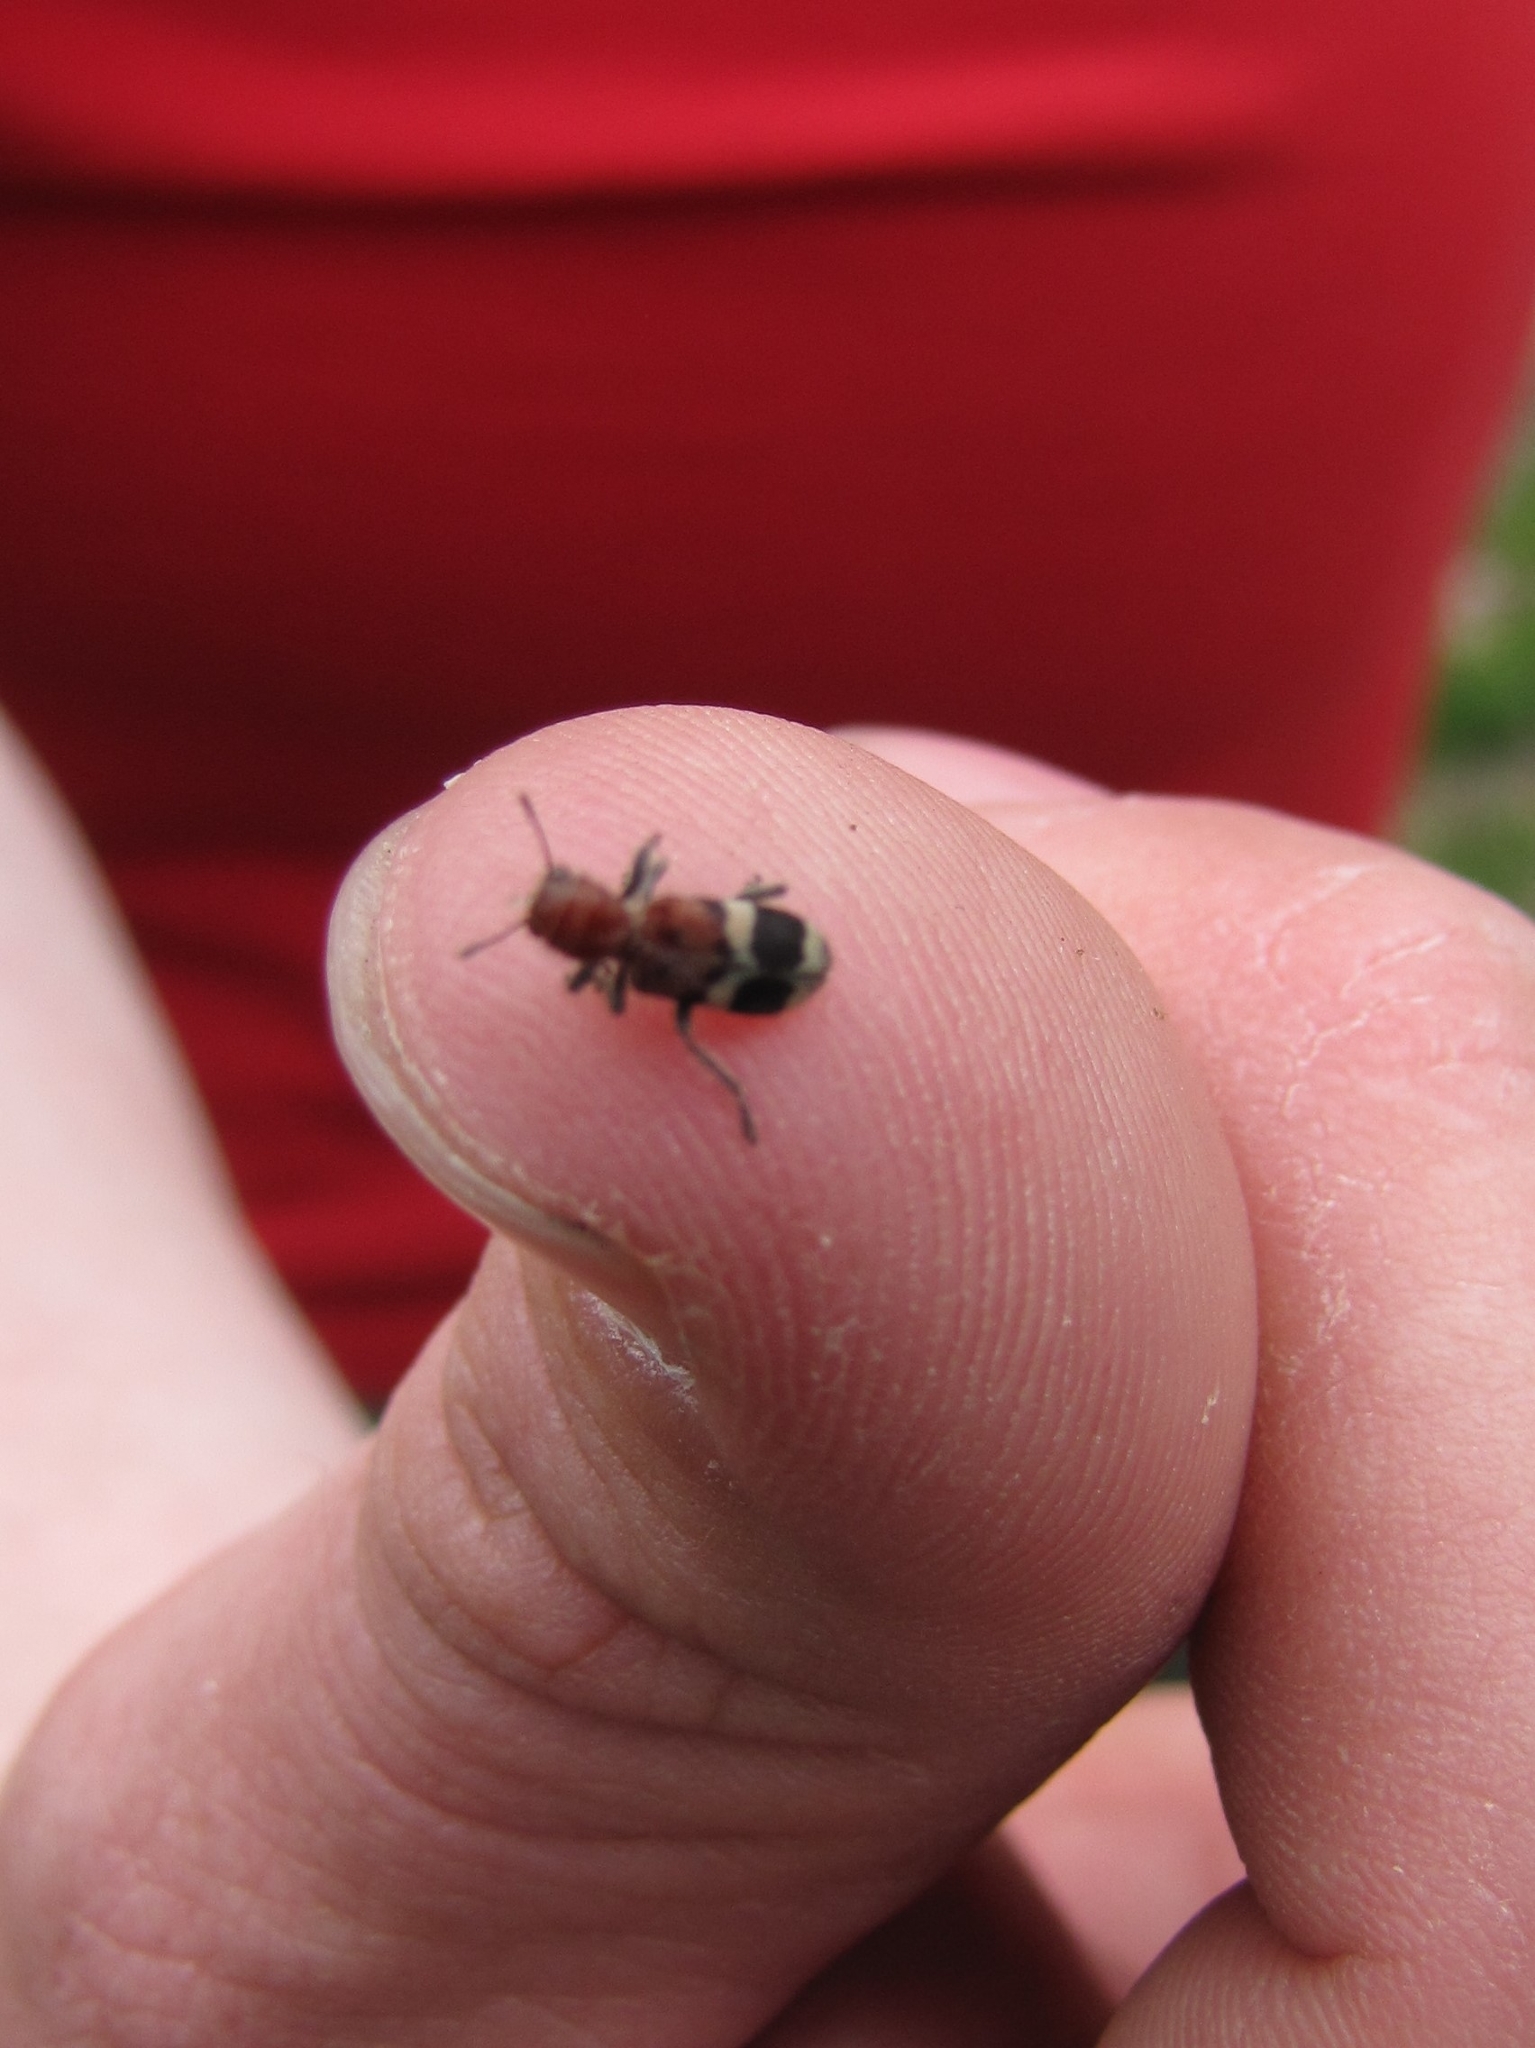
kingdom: Animalia
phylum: Arthropoda
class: Insecta
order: Coleoptera
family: Cleridae
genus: Enoclerus
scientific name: Enoclerus nigripes
